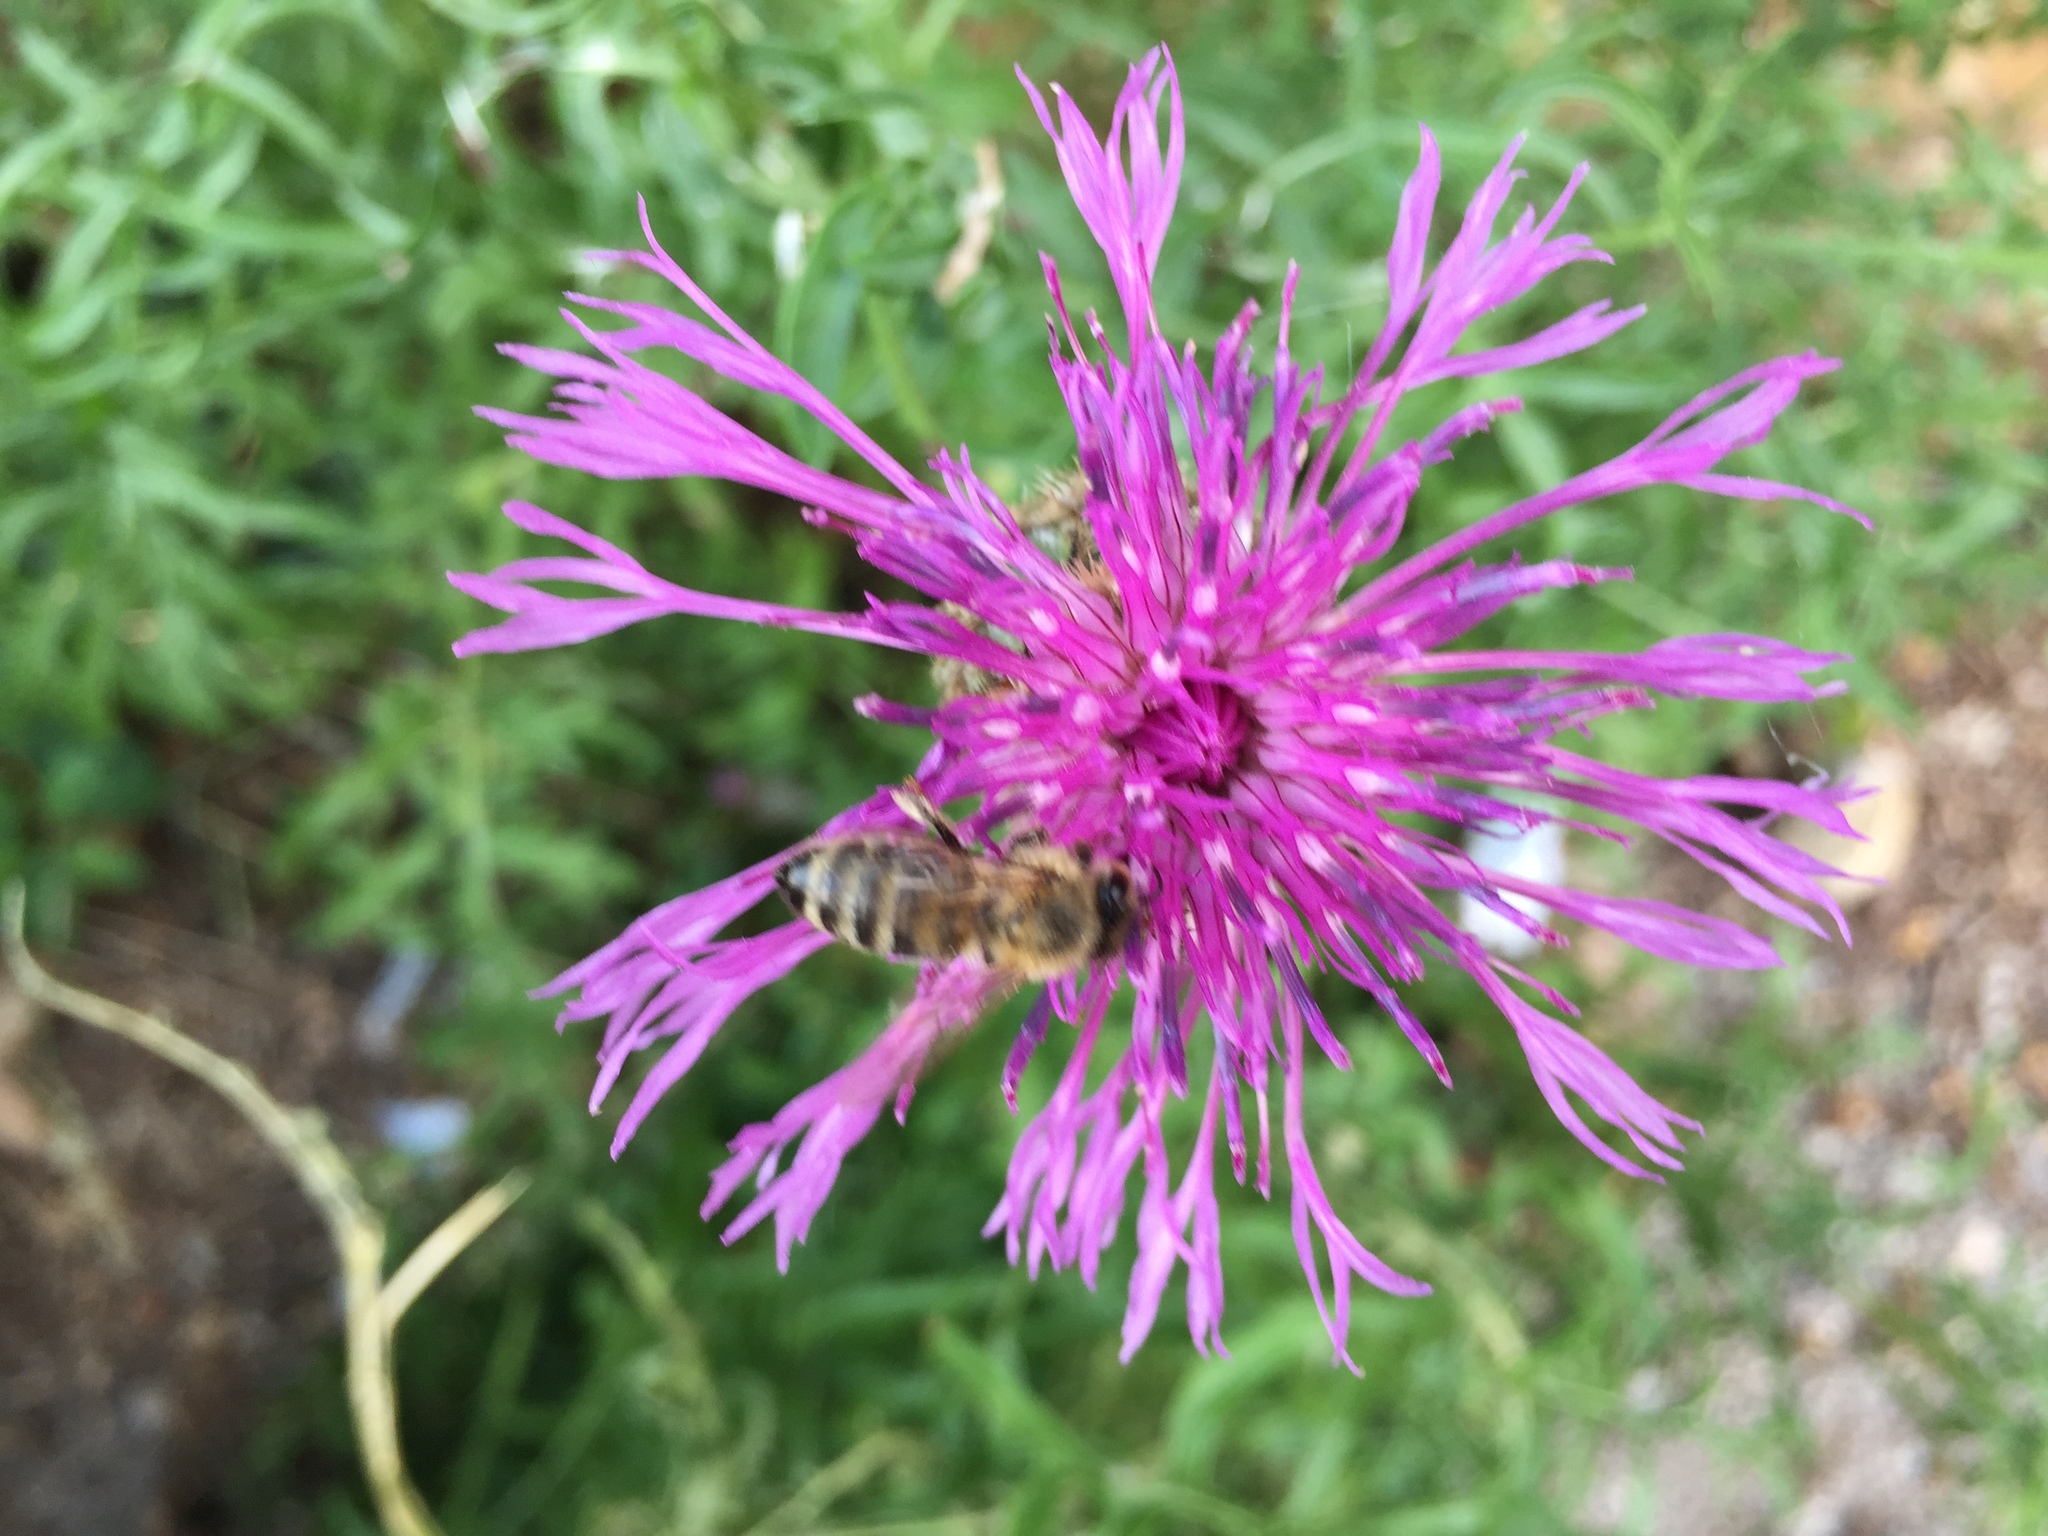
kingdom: Animalia
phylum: Arthropoda
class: Insecta
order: Hymenoptera
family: Apidae
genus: Apis
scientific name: Apis mellifera
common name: Honey bee
